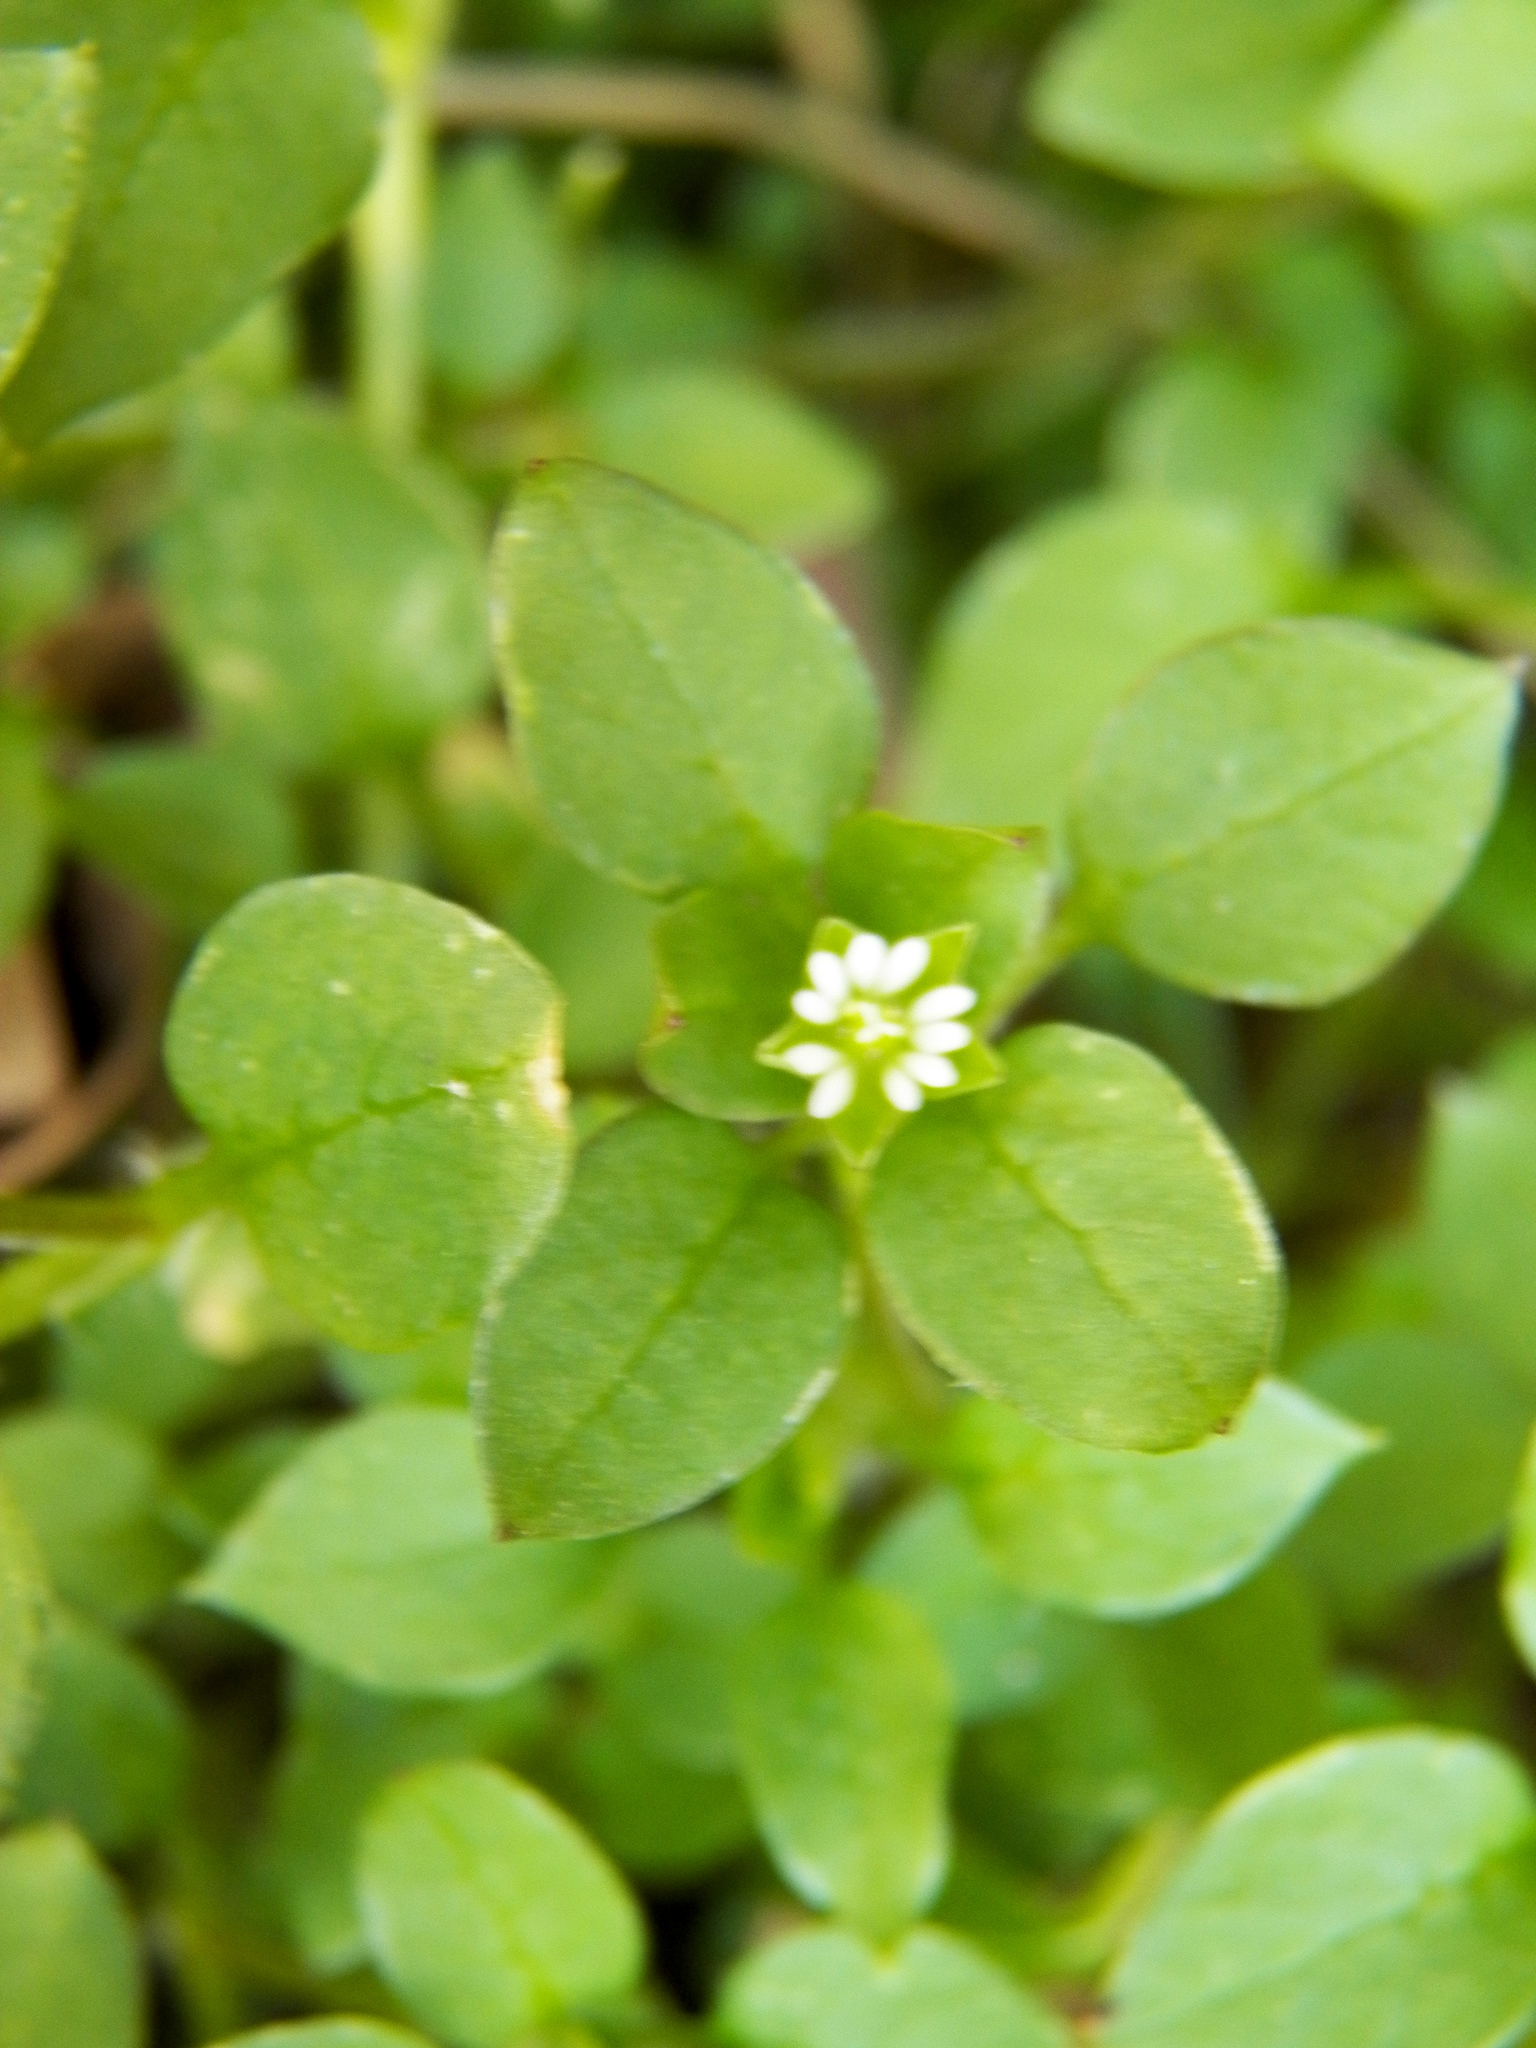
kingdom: Plantae
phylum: Tracheophyta
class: Magnoliopsida
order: Caryophyllales
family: Caryophyllaceae
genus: Stellaria
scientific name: Stellaria media
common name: Common chickweed
